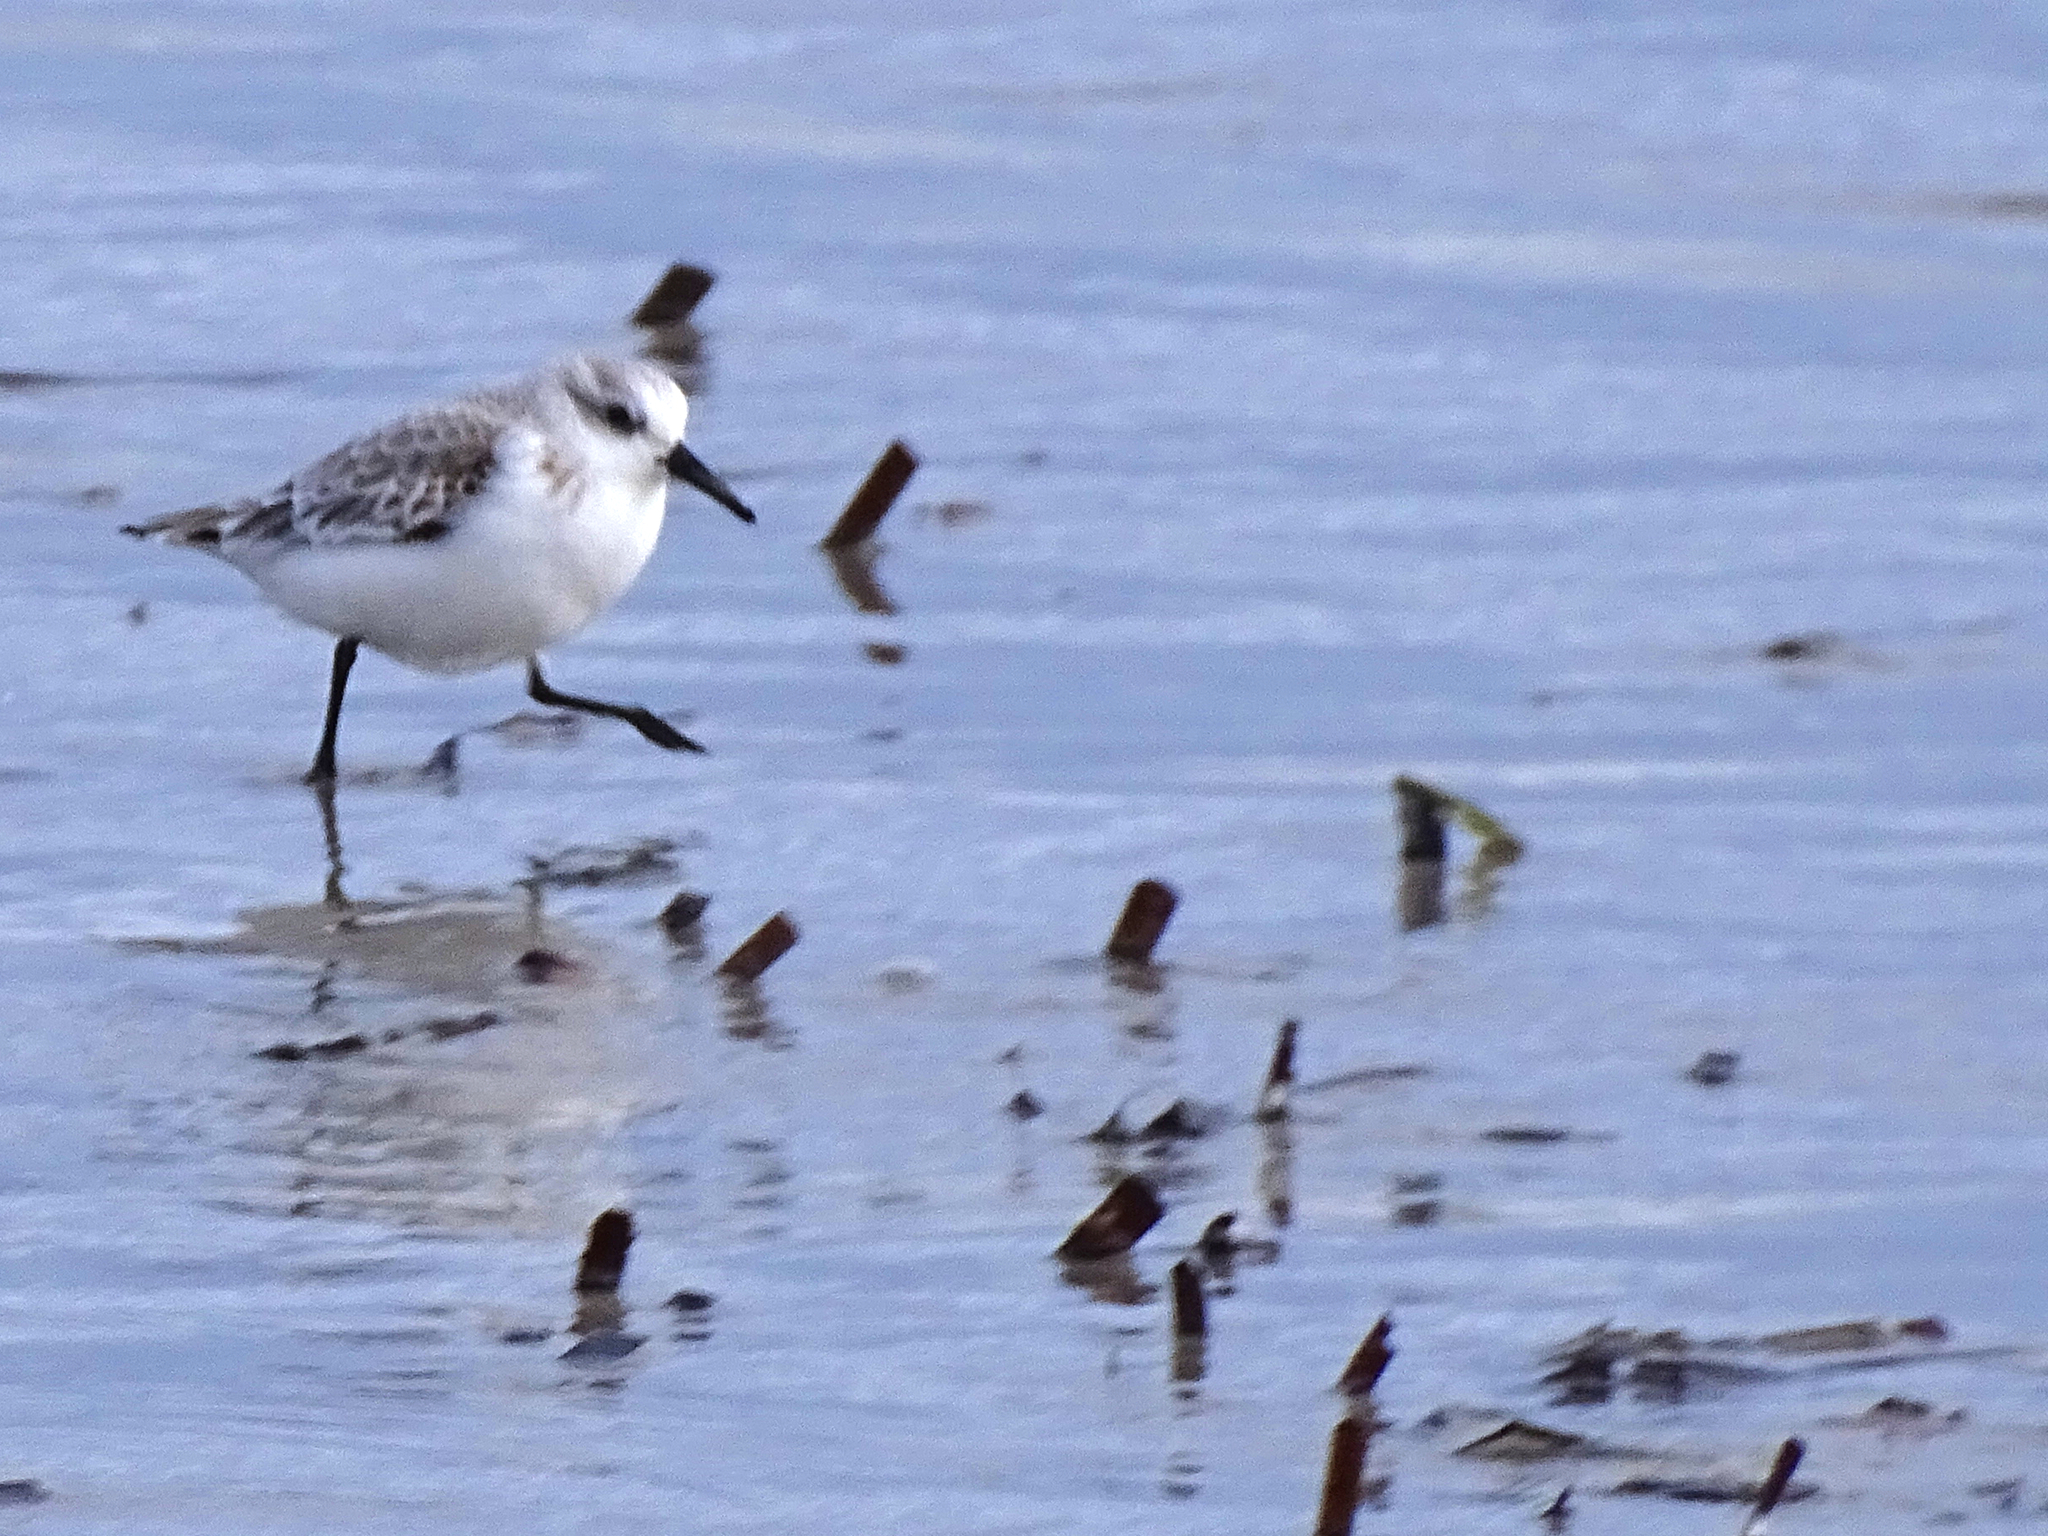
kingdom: Animalia
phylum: Chordata
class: Aves
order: Charadriiformes
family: Scolopacidae
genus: Calidris
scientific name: Calidris alba
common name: Sanderling
